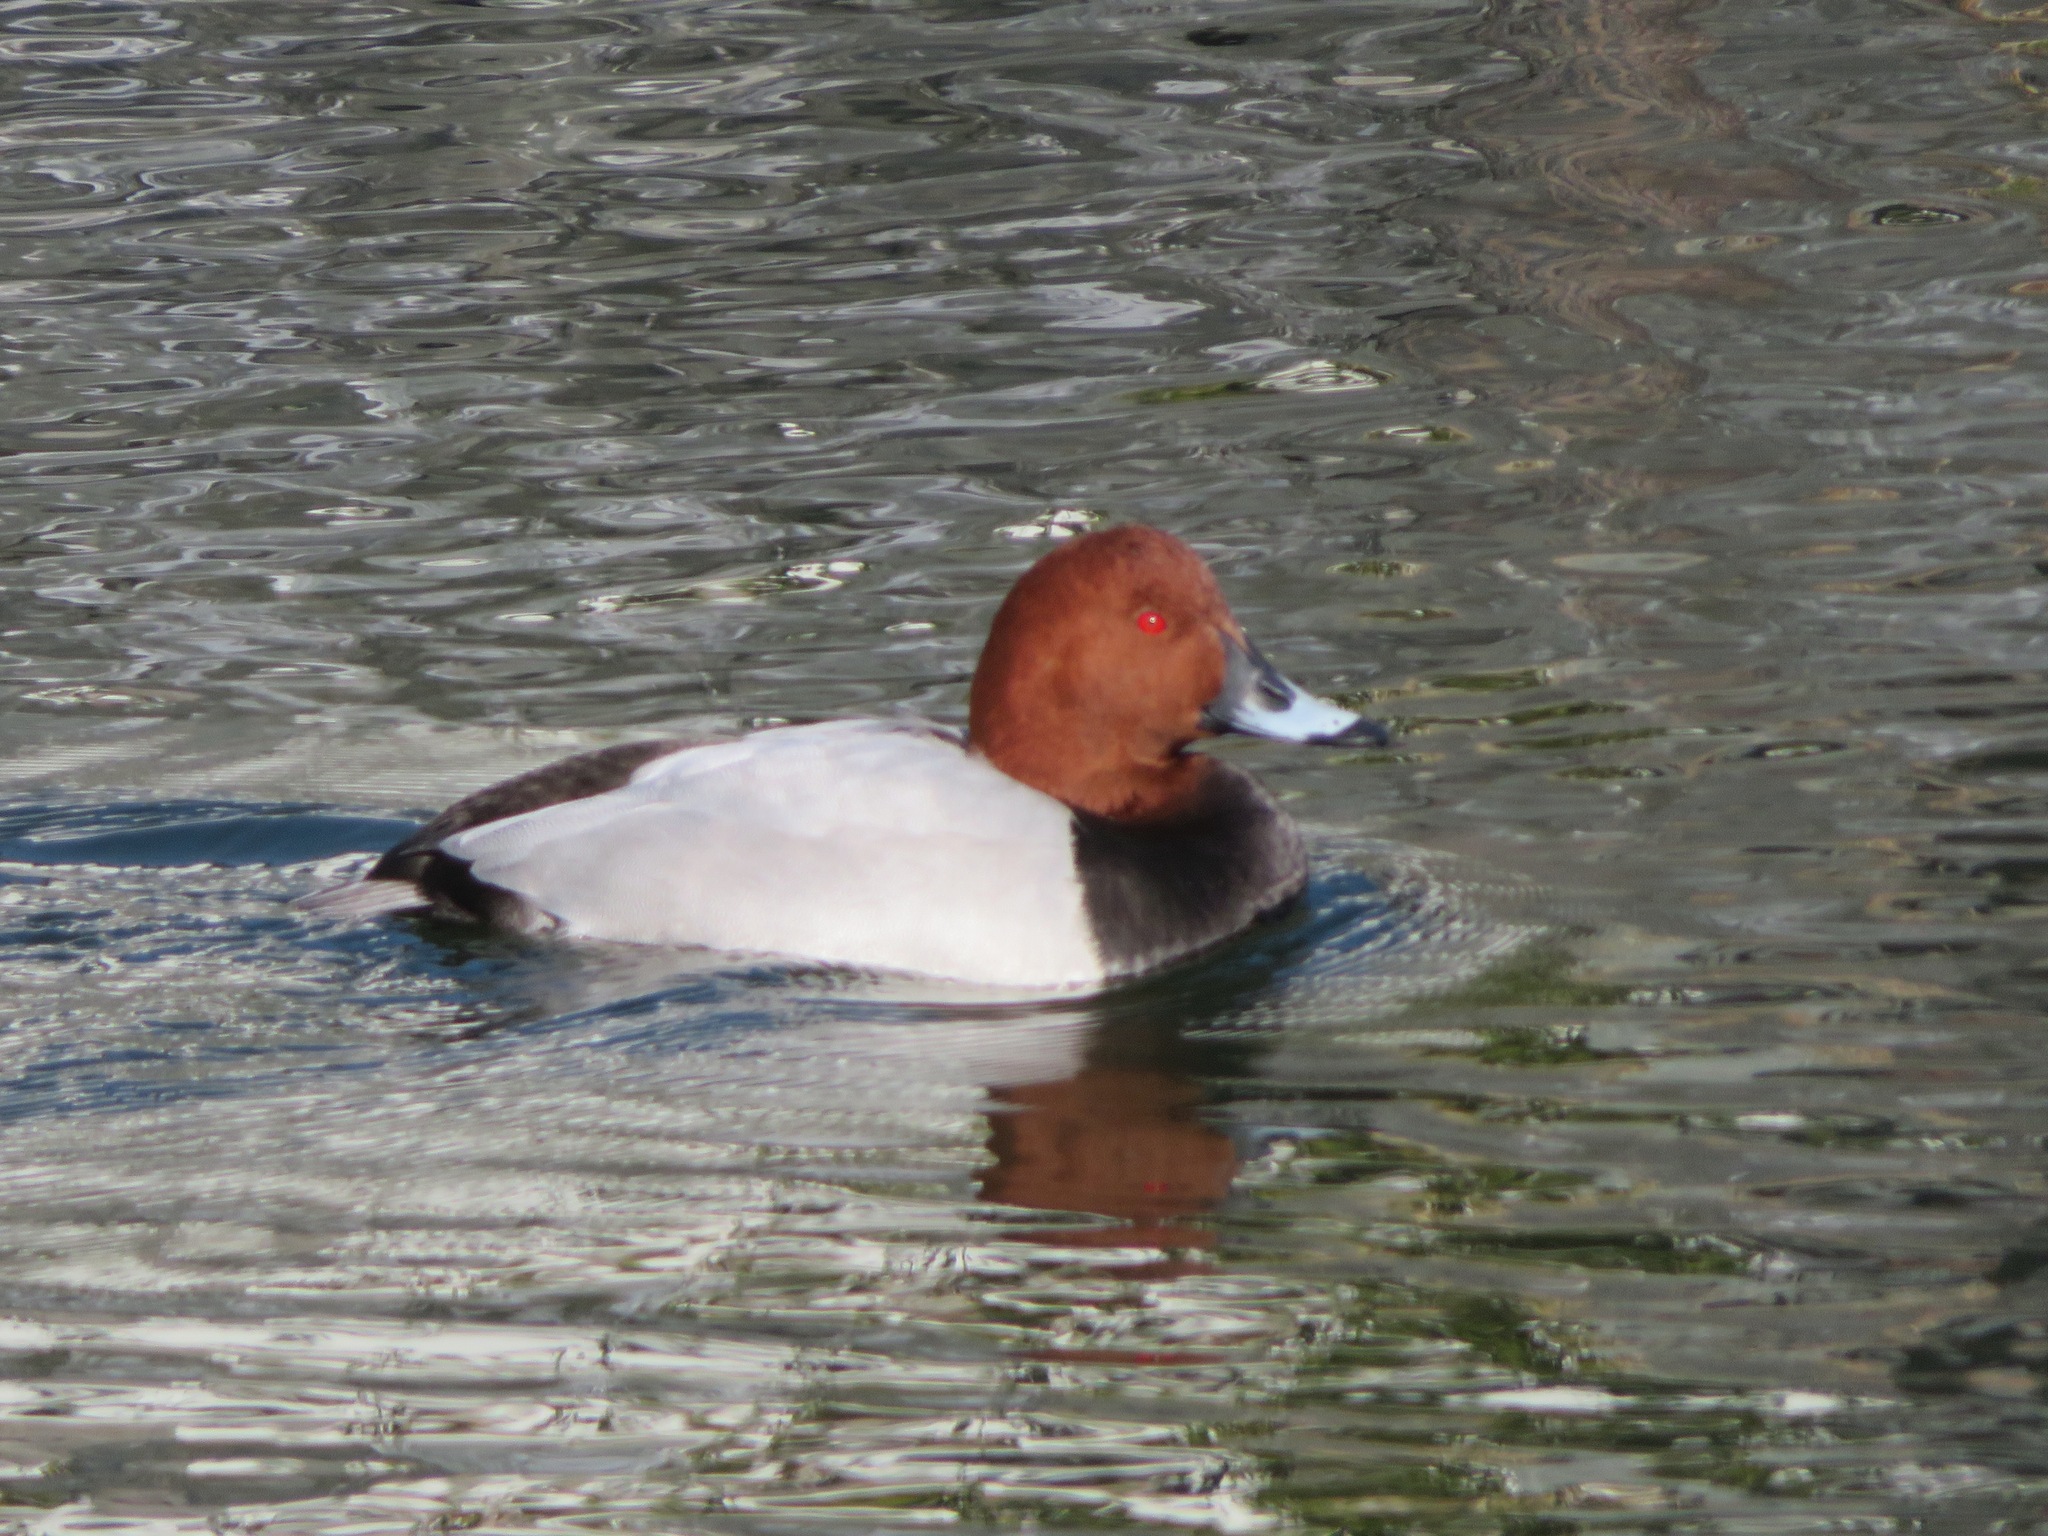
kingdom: Animalia
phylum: Chordata
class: Aves
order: Anseriformes
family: Anatidae
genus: Aythya
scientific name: Aythya ferina
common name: Common pochard
